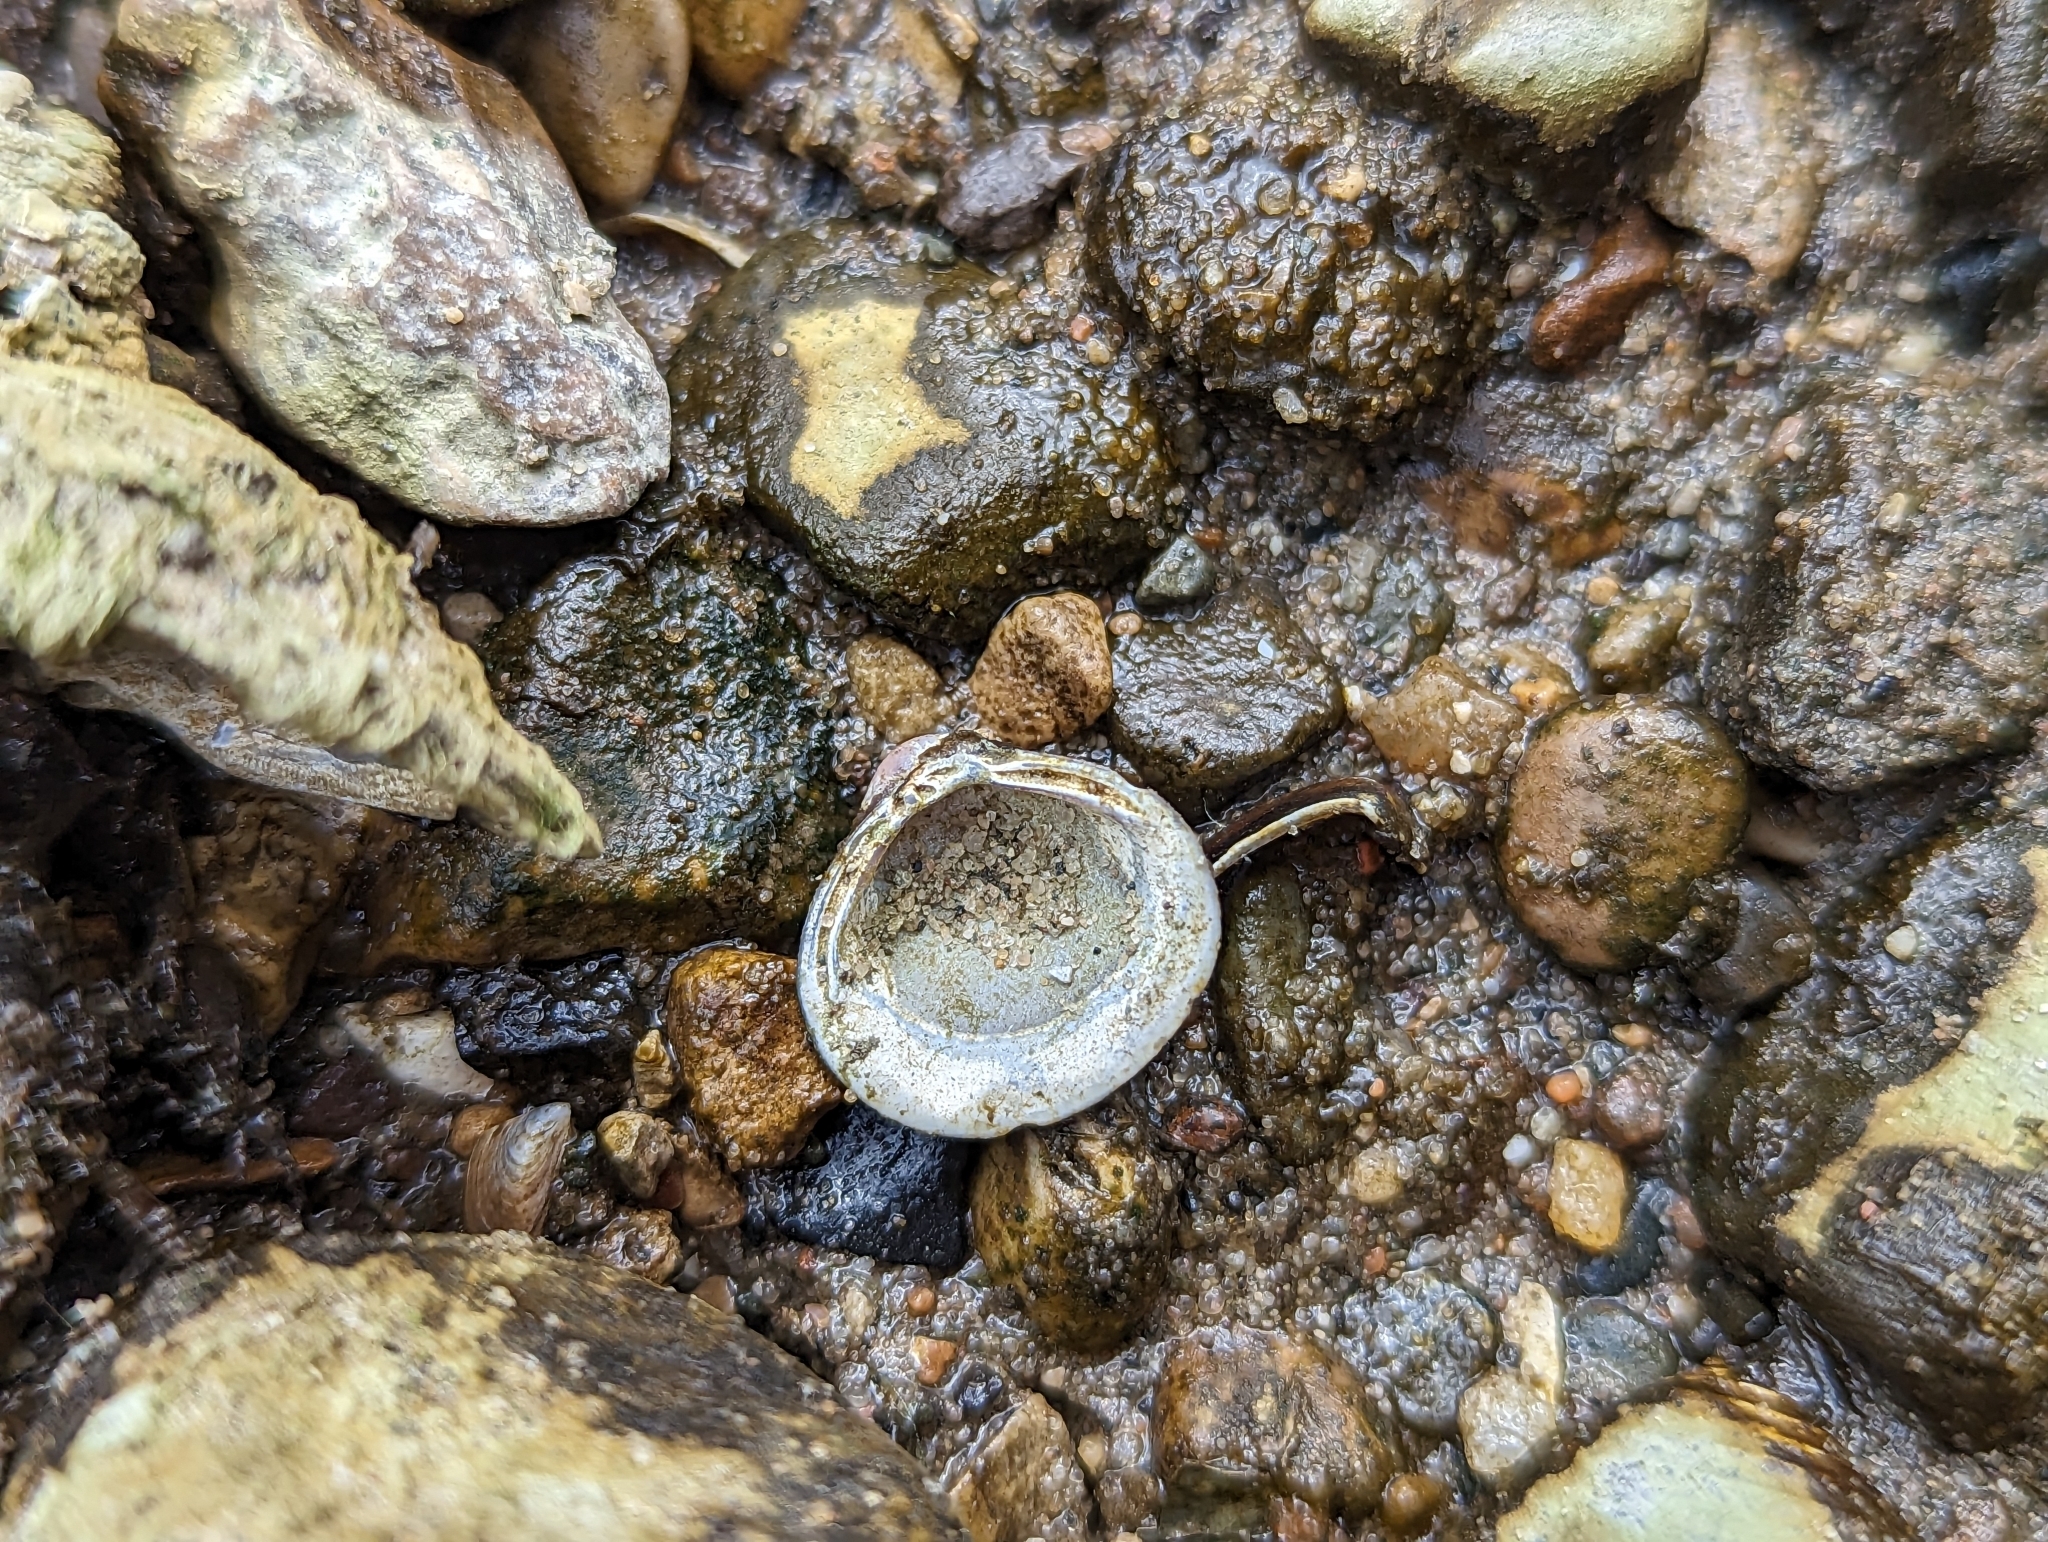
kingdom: Animalia
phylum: Mollusca
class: Bivalvia
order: Venerida
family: Cyrenidae
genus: Corbicula
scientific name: Corbicula fluminea
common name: Asian clam
